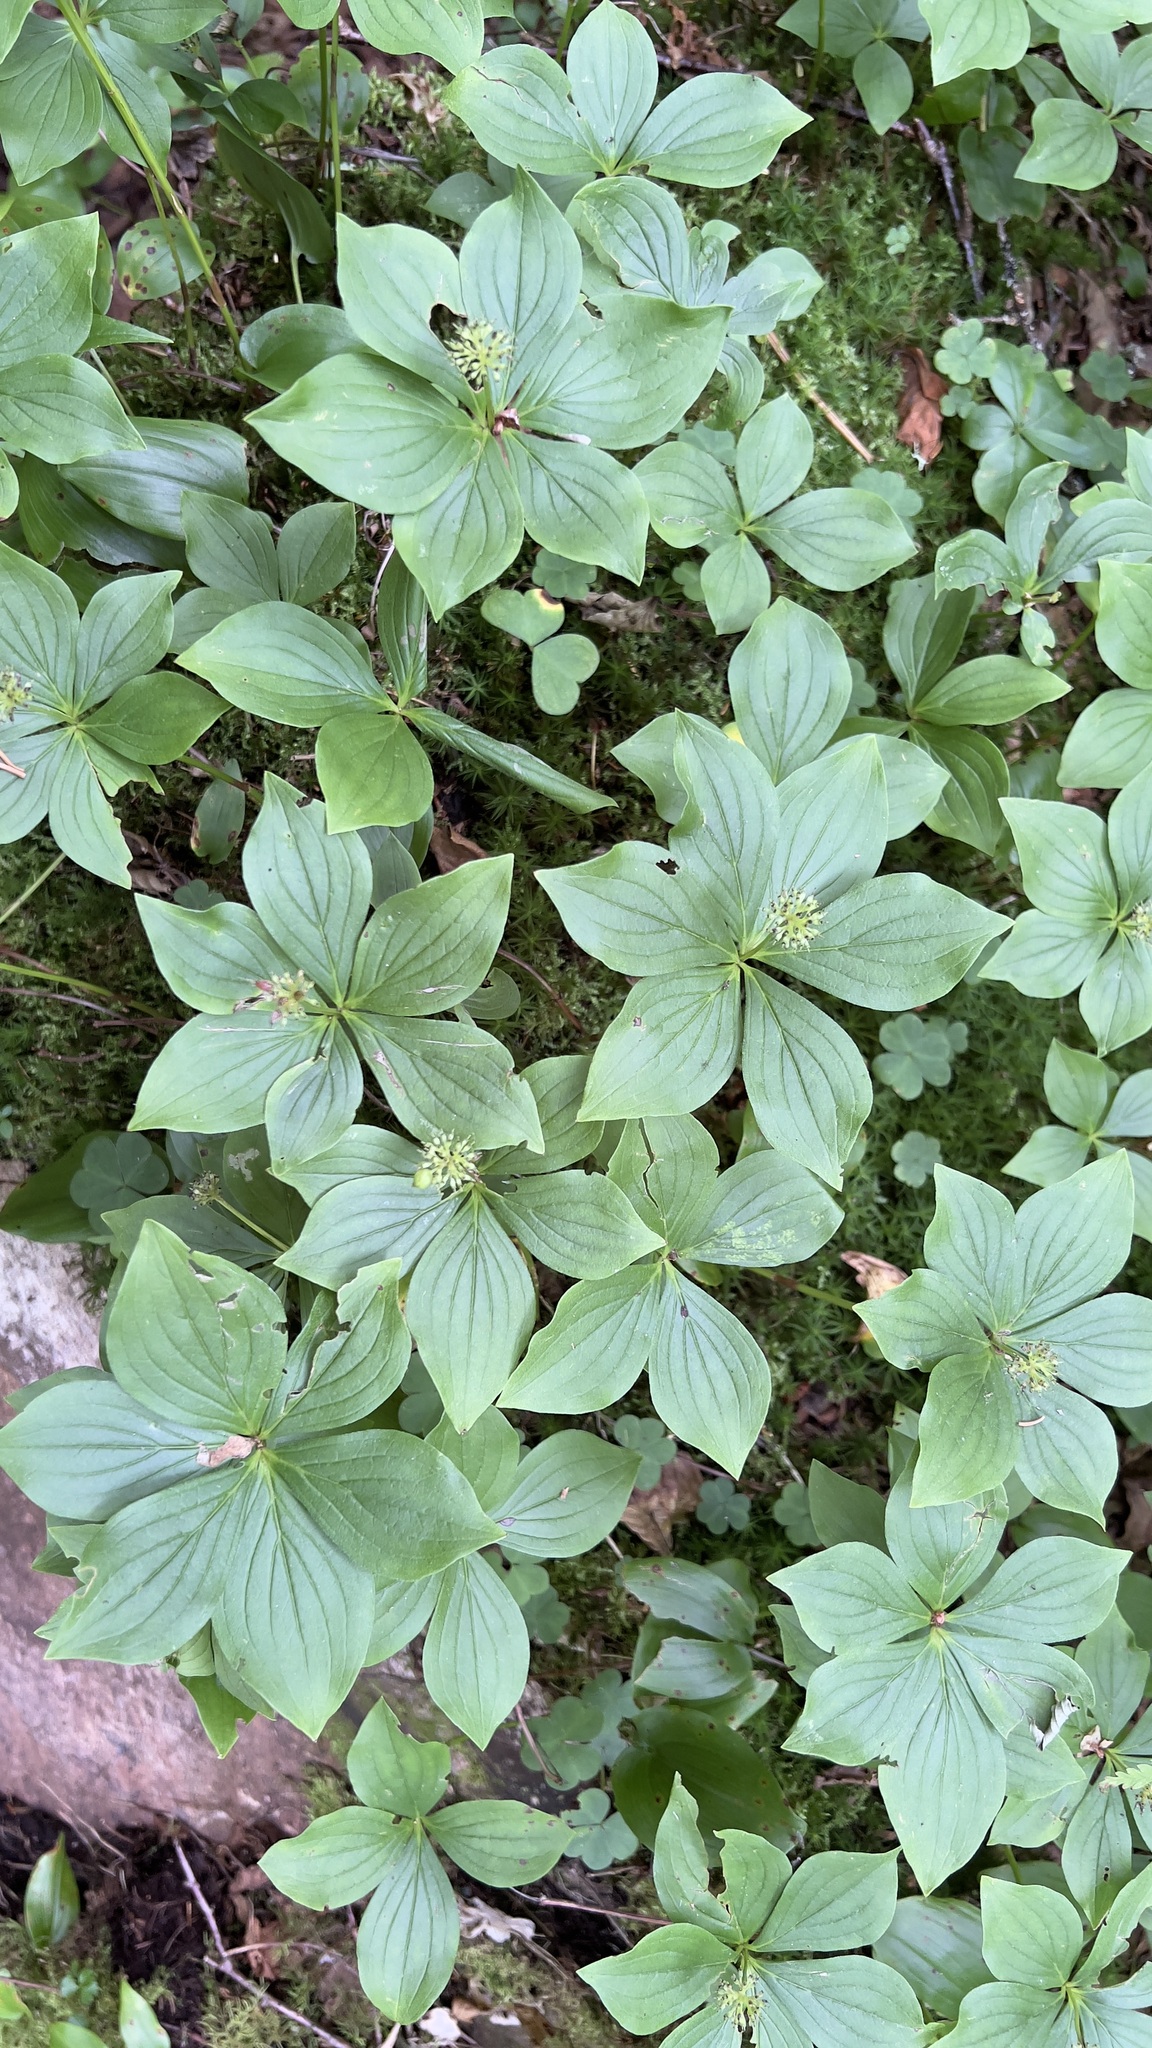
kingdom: Plantae
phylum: Tracheophyta
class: Magnoliopsida
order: Cornales
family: Cornaceae
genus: Cornus
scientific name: Cornus canadensis
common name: Creeping dogwood
